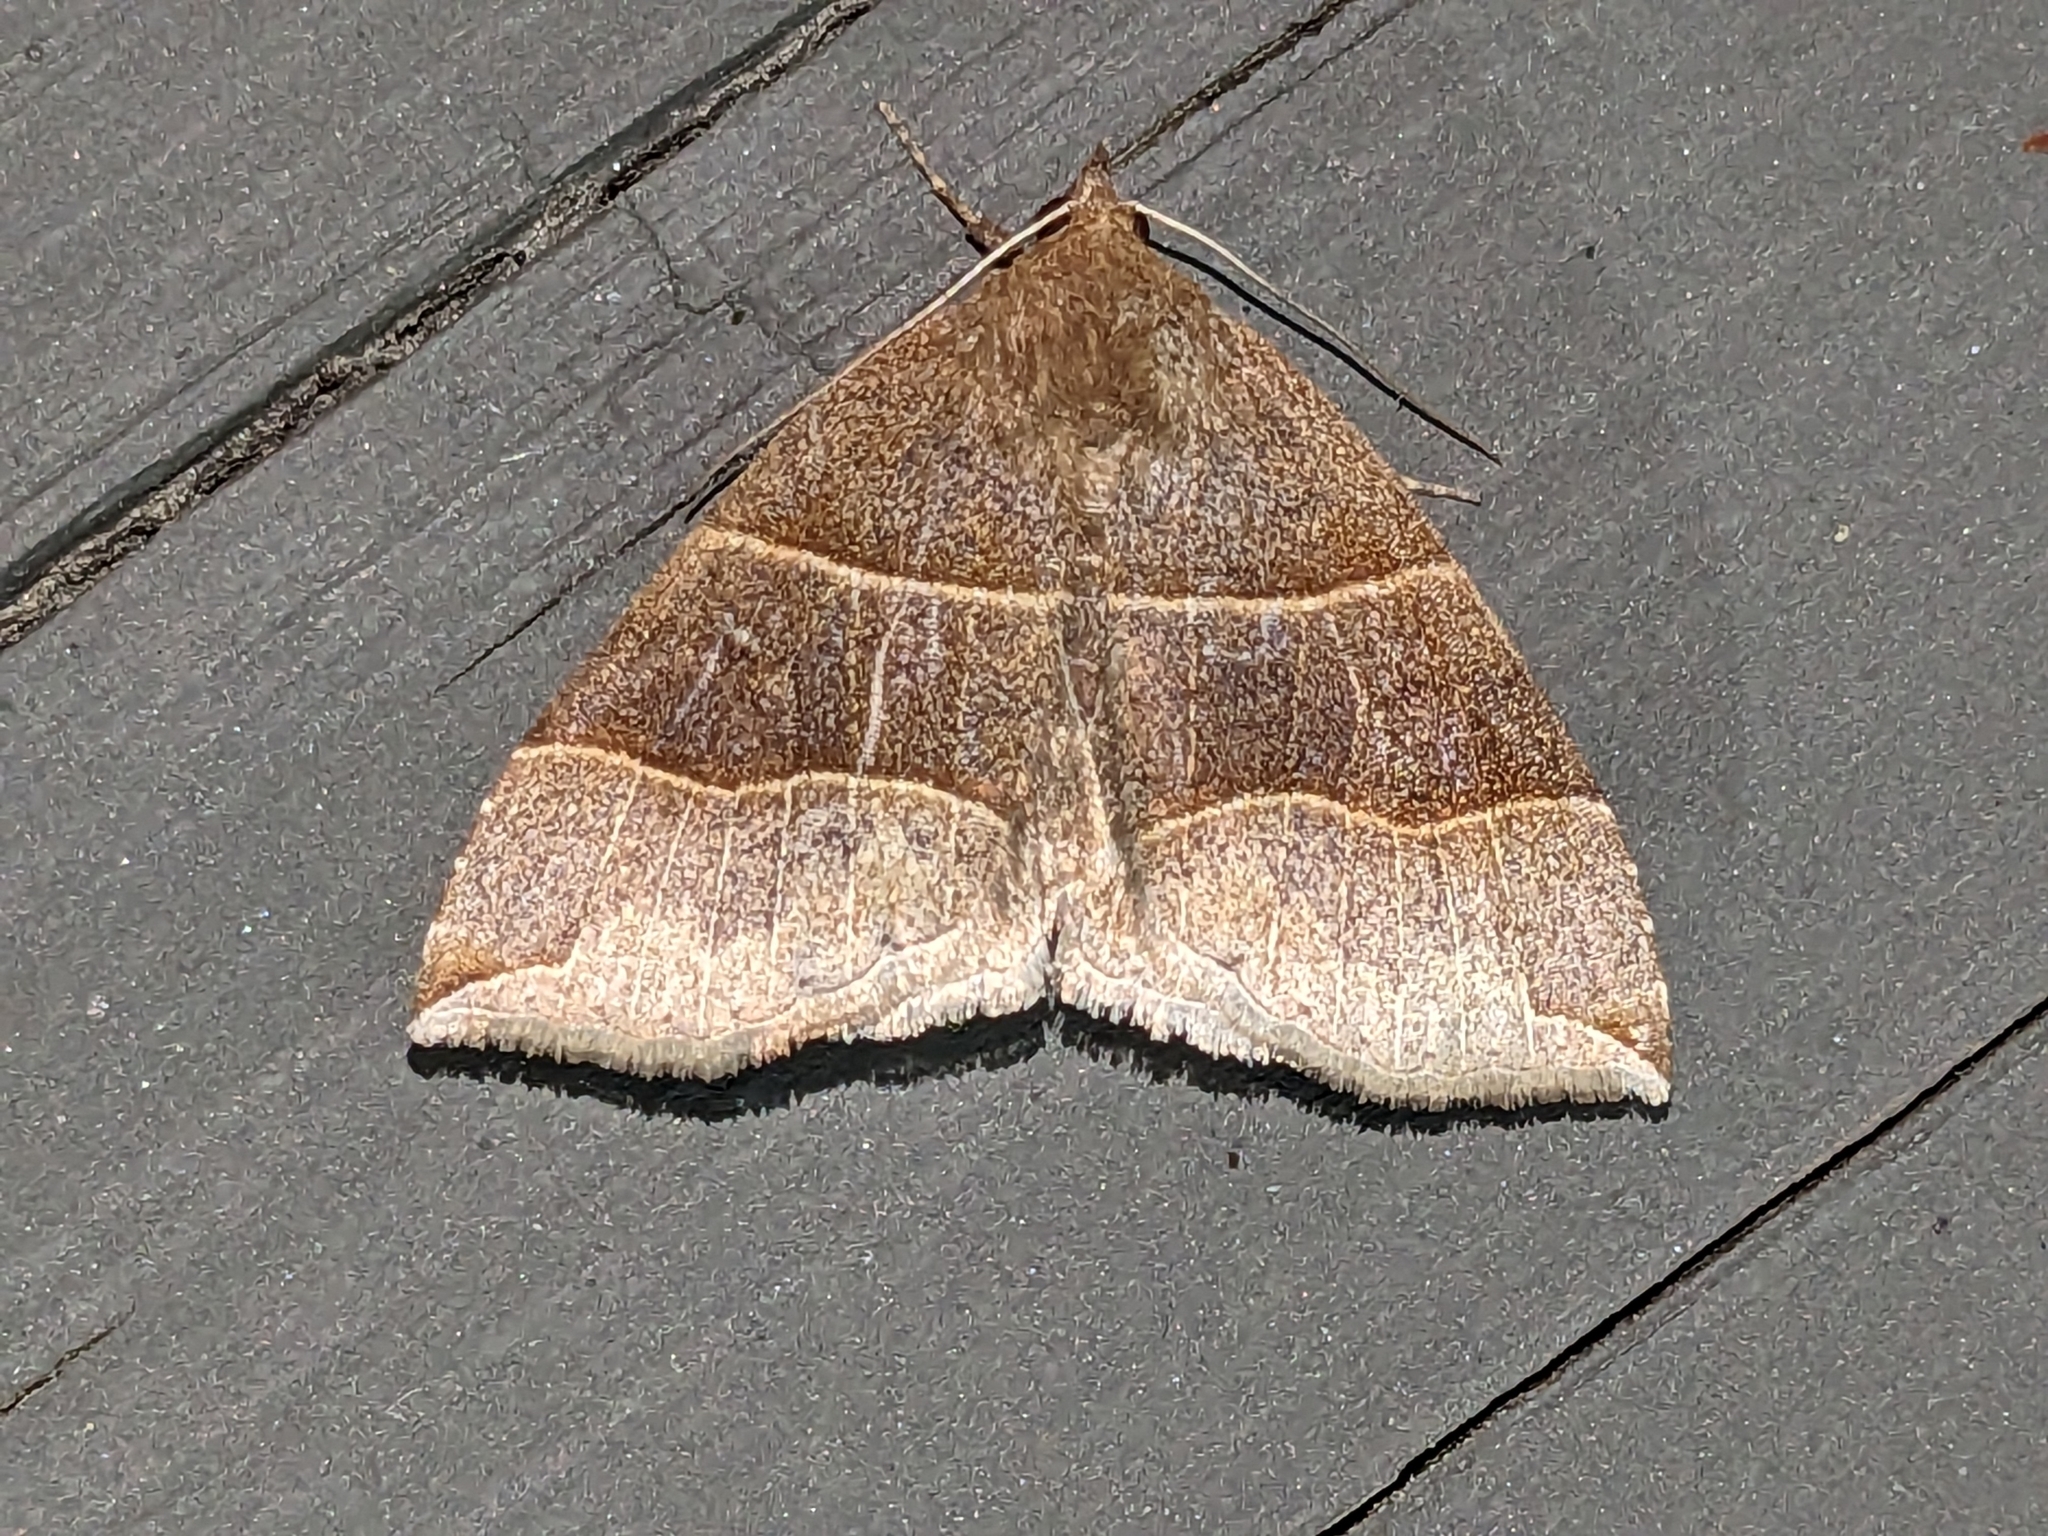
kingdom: Animalia
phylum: Arthropoda
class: Insecta
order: Lepidoptera
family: Erebidae
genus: Parallelia
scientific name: Parallelia bistriaris
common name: Maple looper moth
